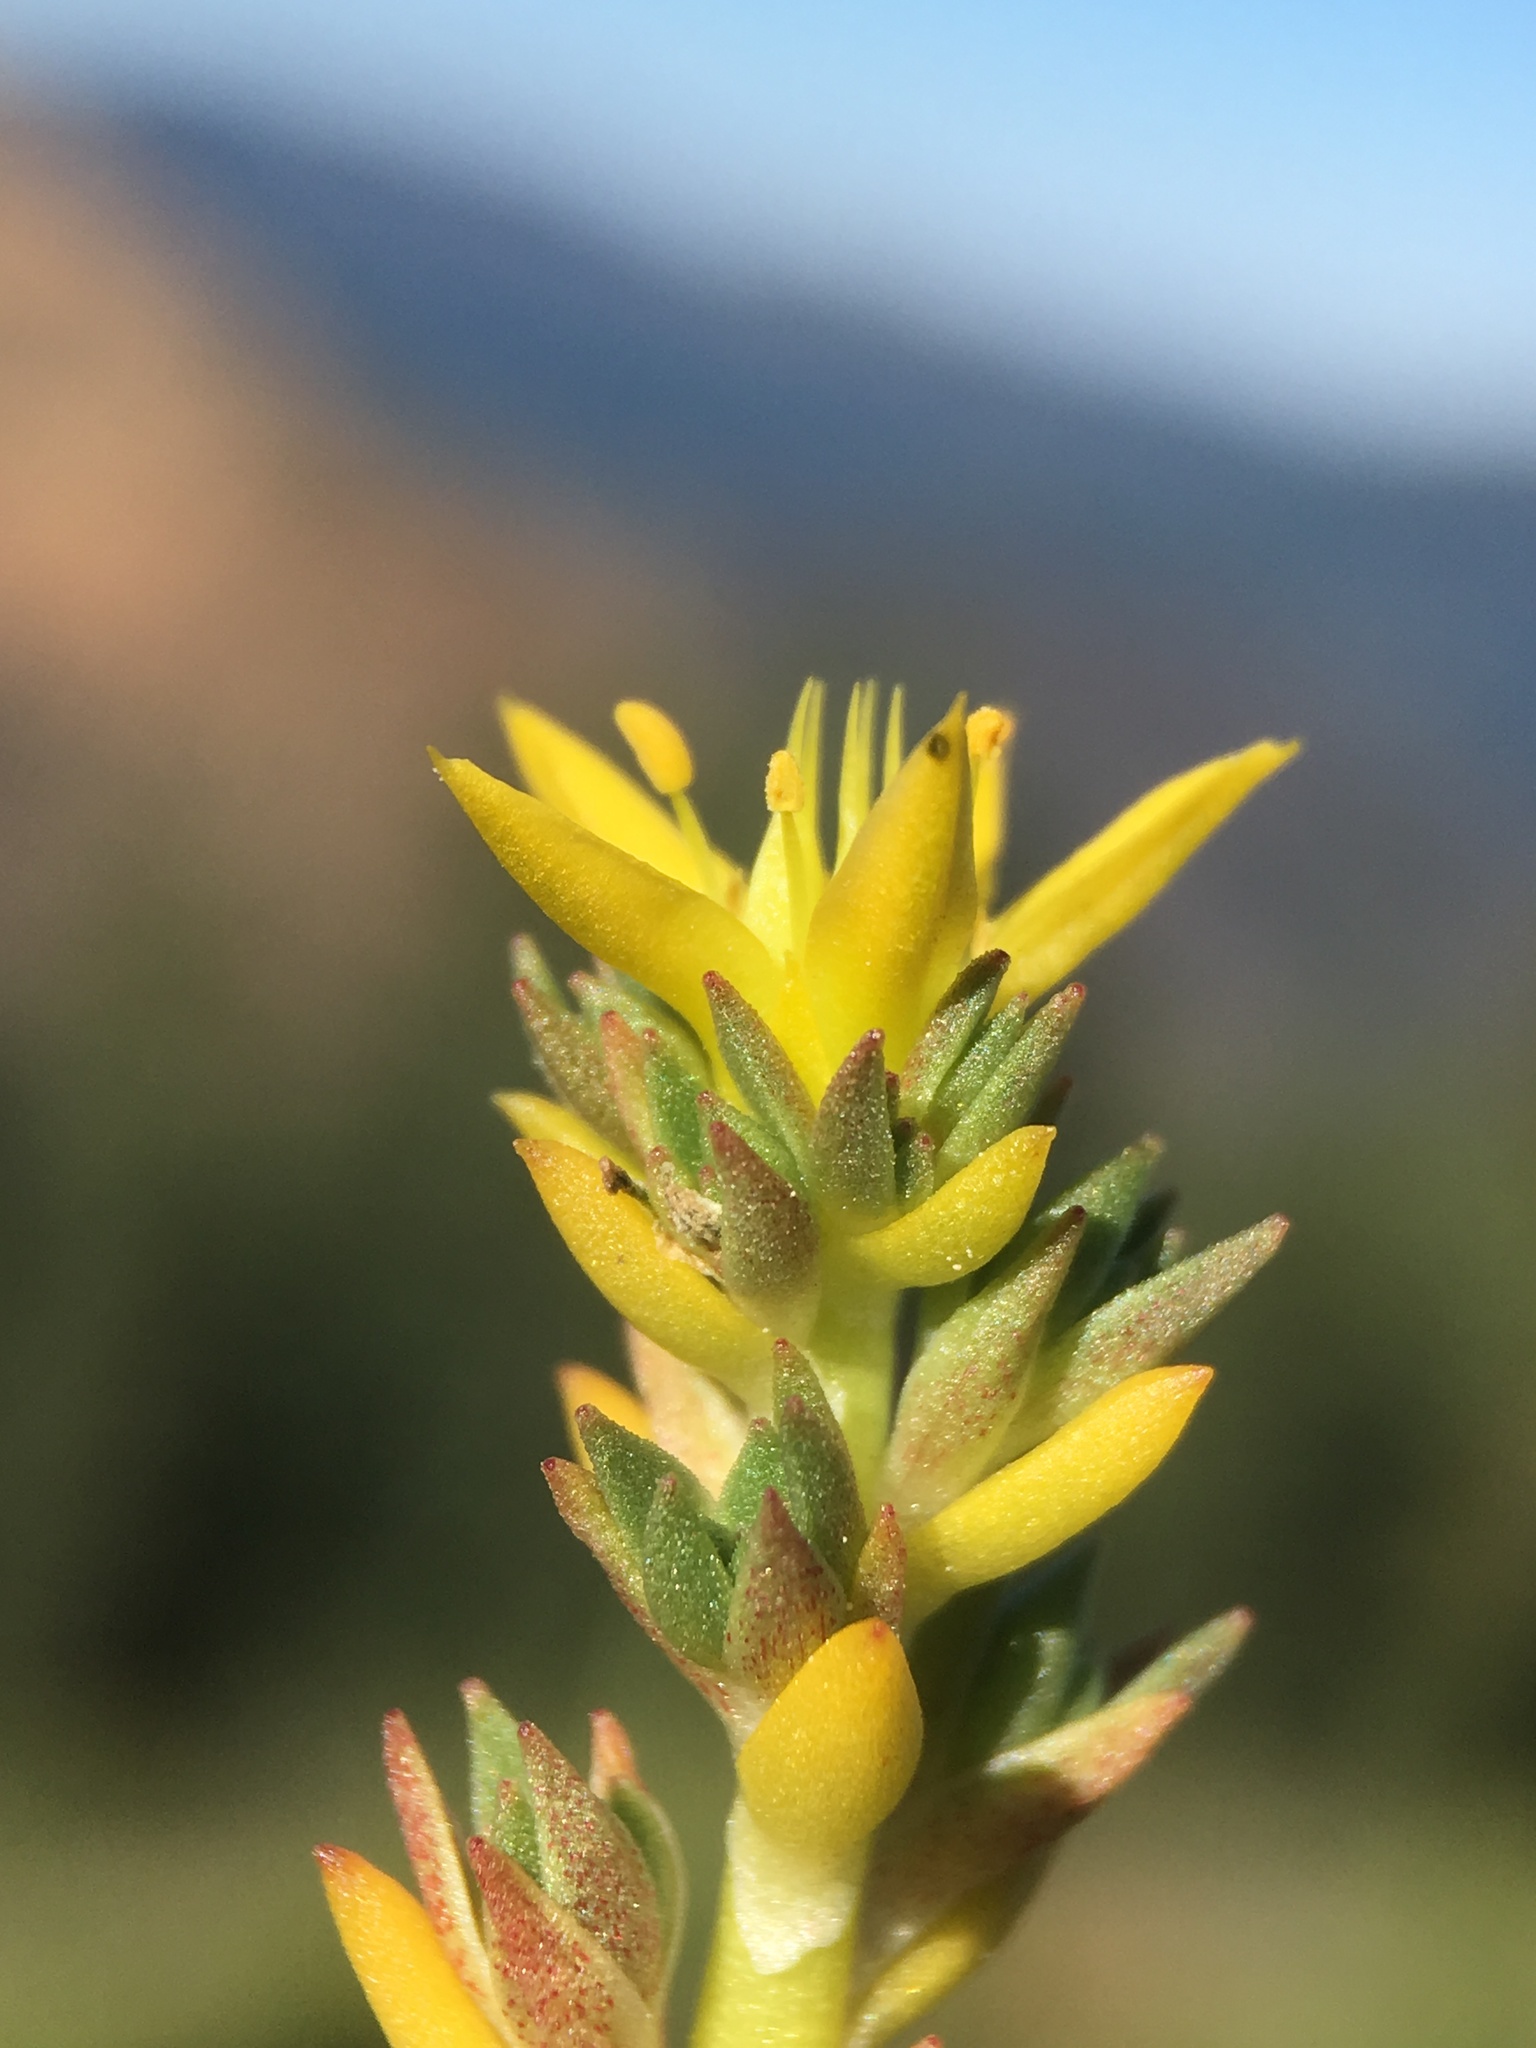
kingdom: Plantae
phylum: Tracheophyta
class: Magnoliopsida
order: Saxifragales
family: Crassulaceae
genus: Sedum
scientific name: Sedum stenopetalum
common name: Narrow-petaled stonecrop
